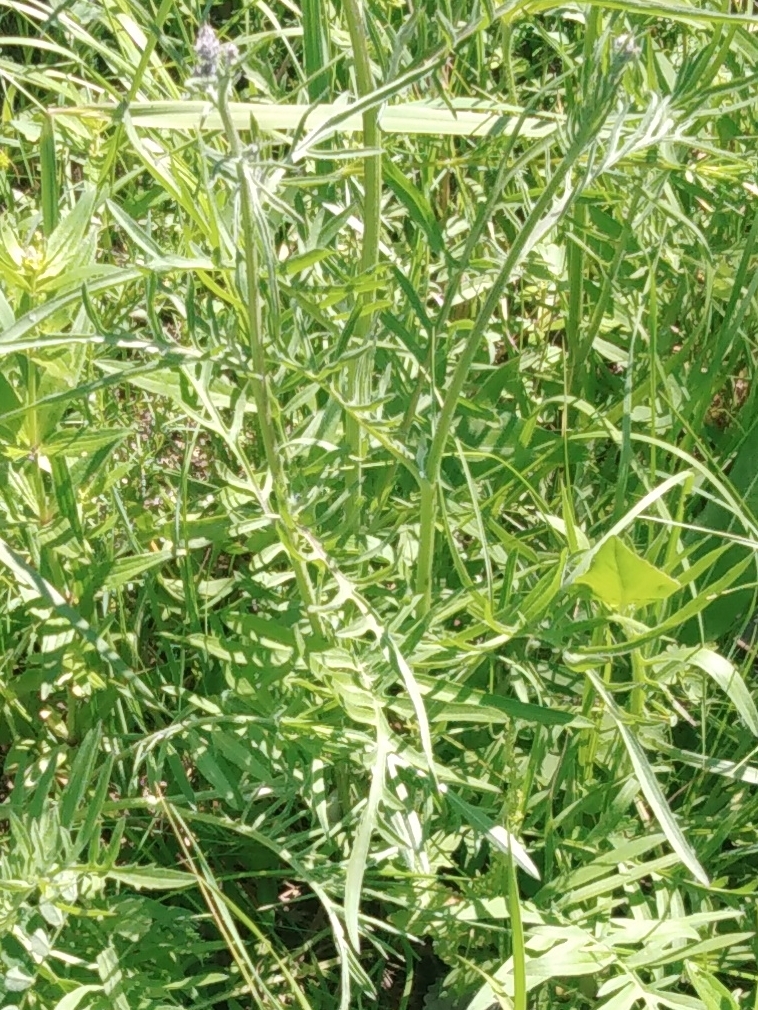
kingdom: Plantae
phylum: Tracheophyta
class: Magnoliopsida
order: Asterales
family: Asteraceae
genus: Centaurea
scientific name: Centaurea scabiosa
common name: Greater knapweed
